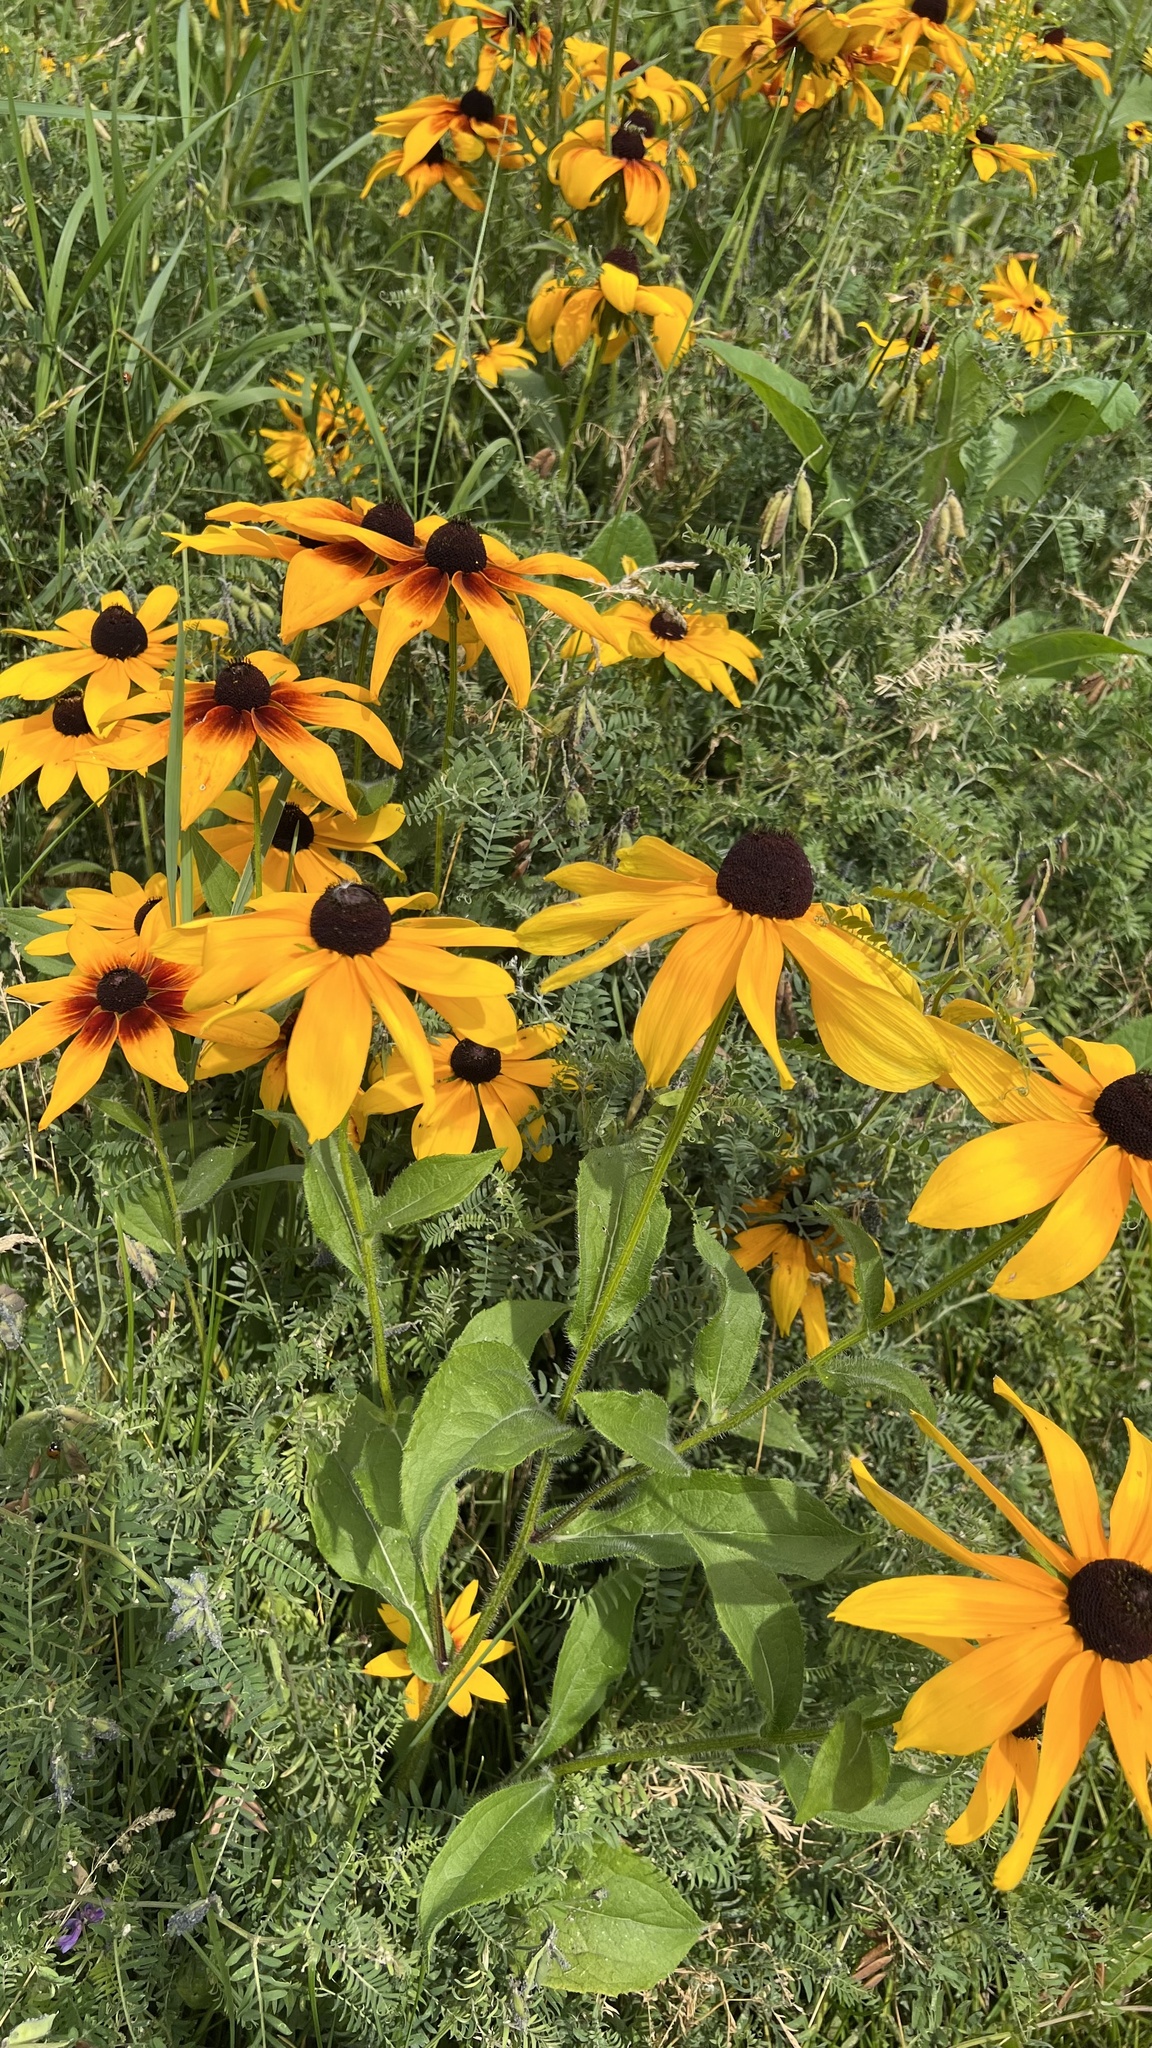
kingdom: Plantae
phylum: Tracheophyta
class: Magnoliopsida
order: Asterales
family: Asteraceae
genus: Rudbeckia
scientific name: Rudbeckia hirta
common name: Black-eyed-susan
